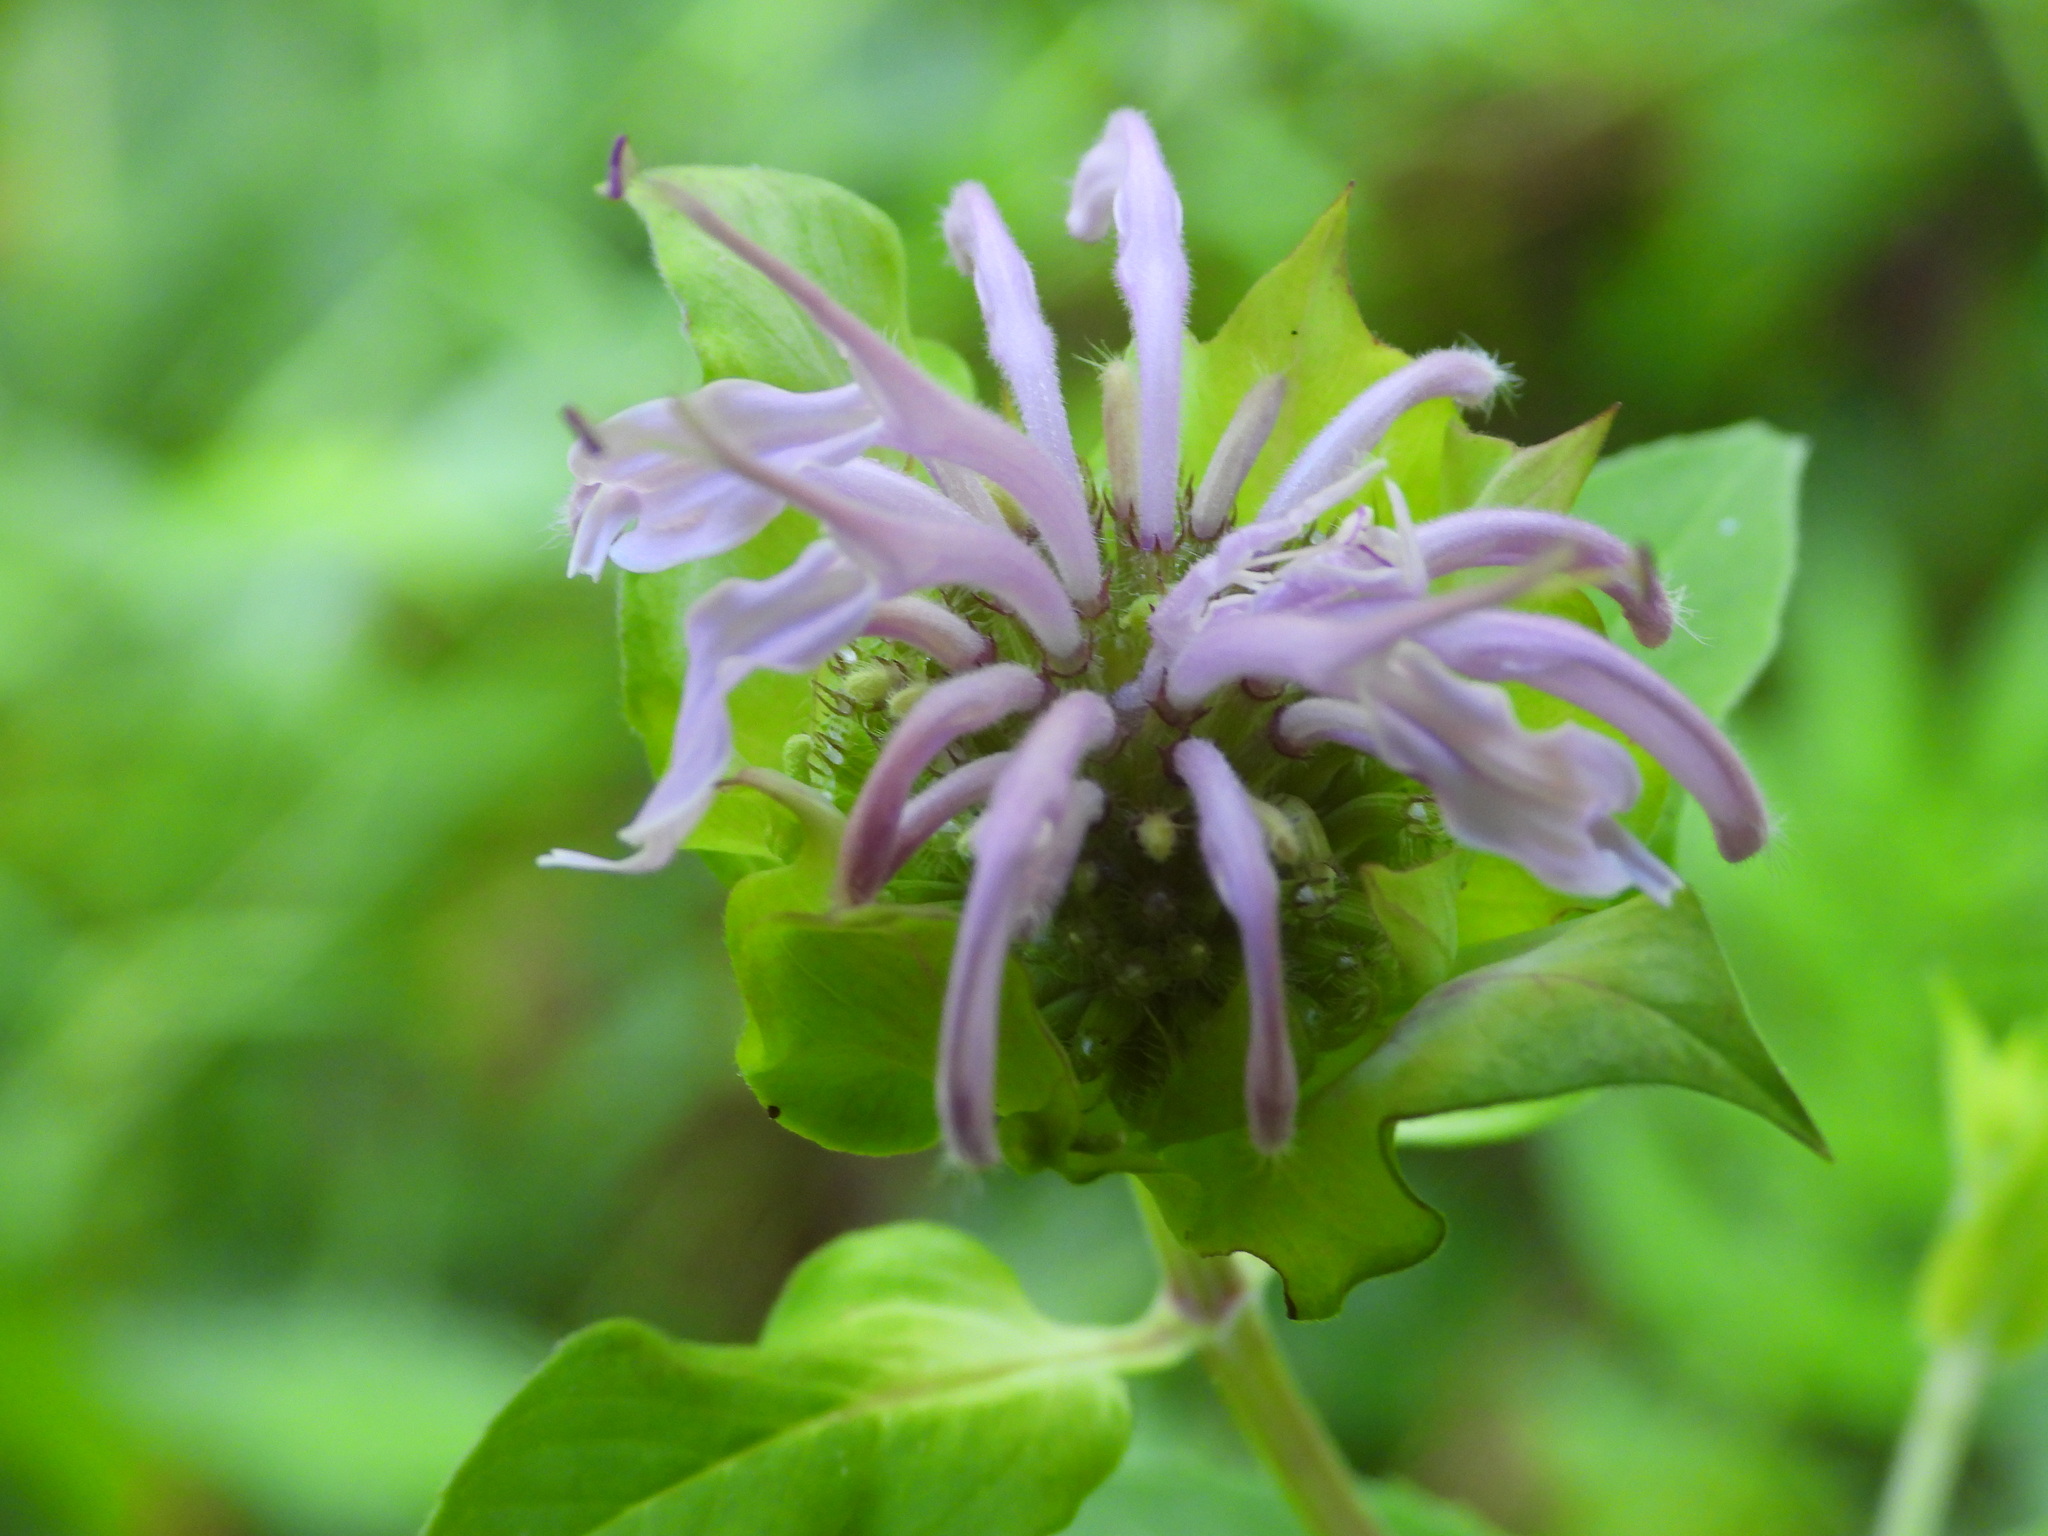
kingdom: Plantae
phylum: Tracheophyta
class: Magnoliopsida
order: Lamiales
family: Lamiaceae
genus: Monarda
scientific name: Monarda fistulosa
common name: Purple beebalm
